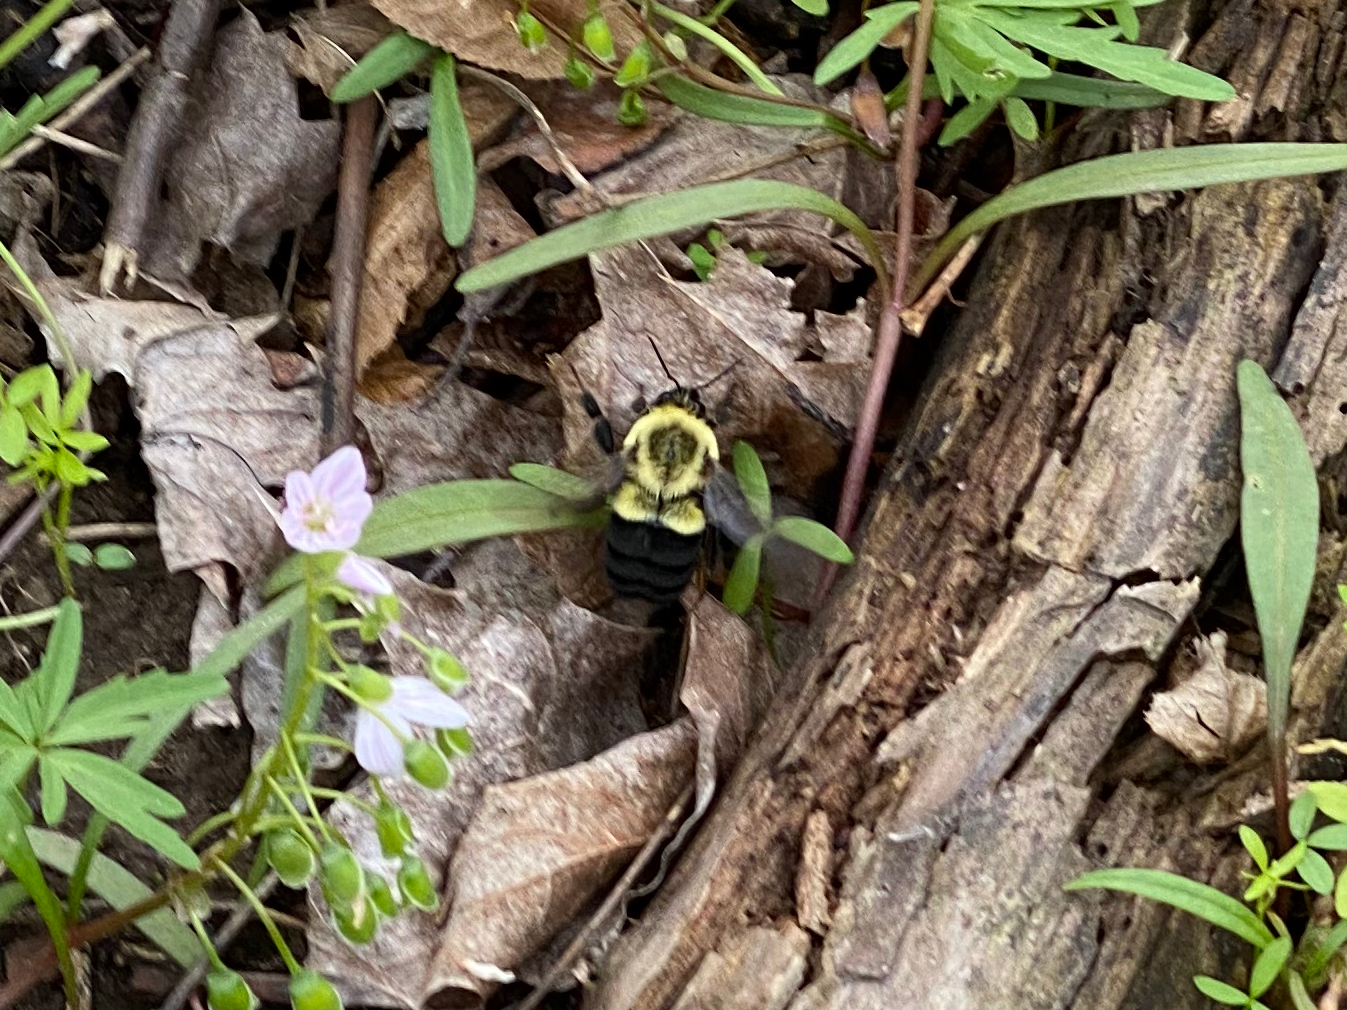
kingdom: Animalia
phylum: Arthropoda
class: Insecta
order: Hymenoptera
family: Apidae
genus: Bombus
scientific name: Bombus impatiens
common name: Common eastern bumble bee
